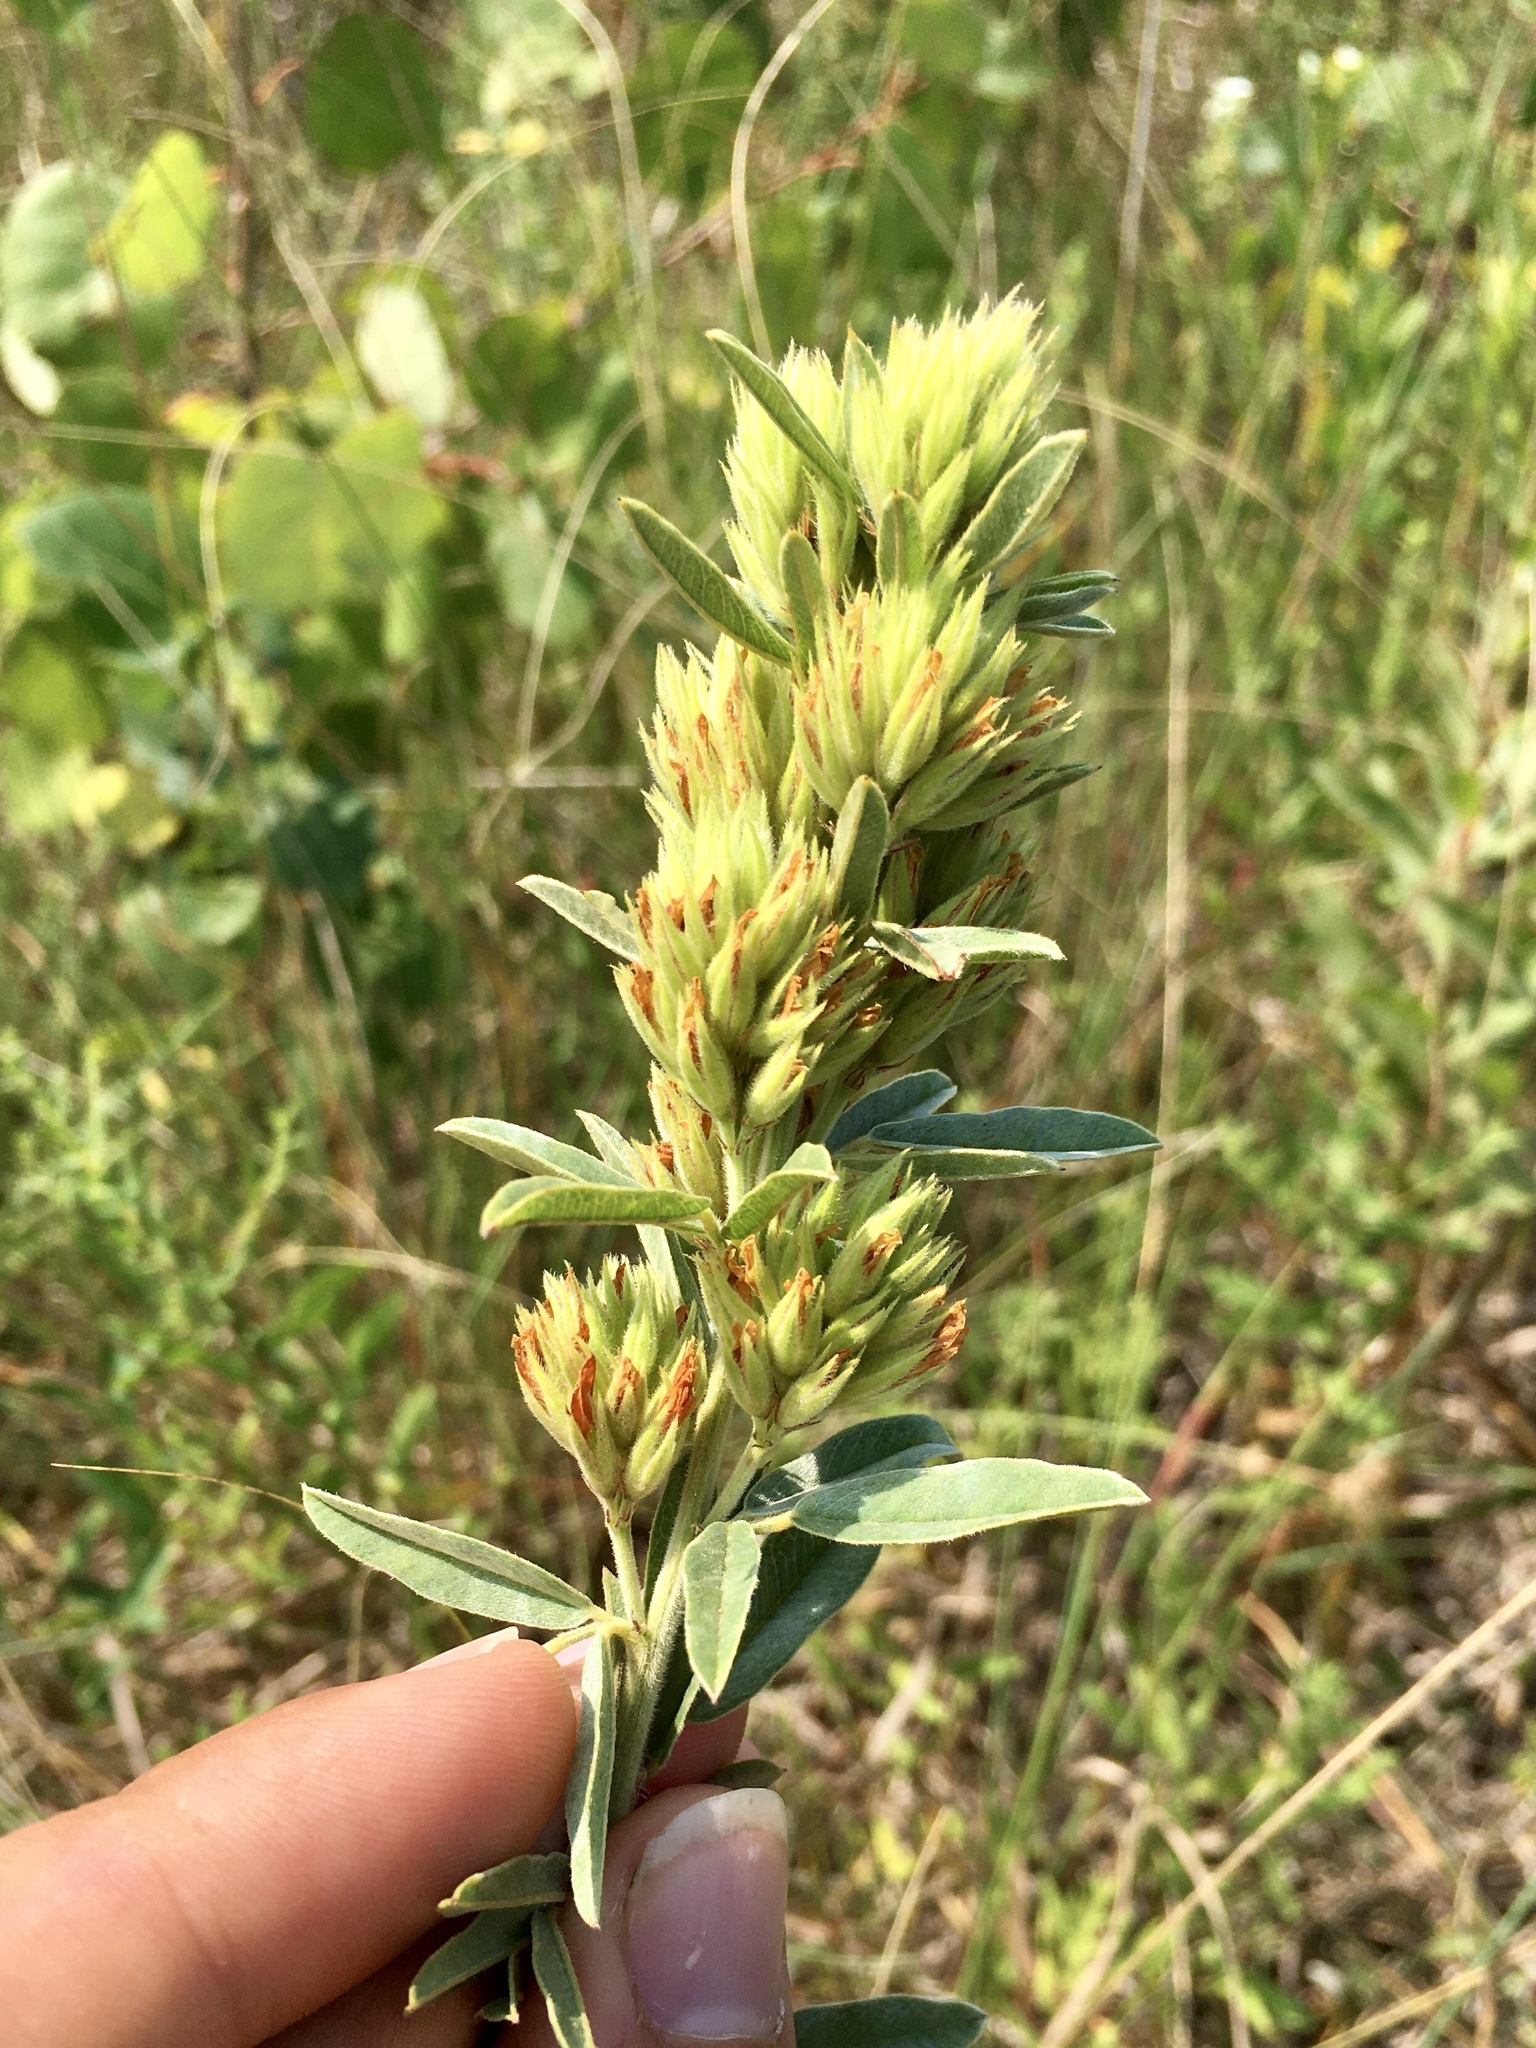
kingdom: Plantae
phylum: Tracheophyta
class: Magnoliopsida
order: Fabales
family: Fabaceae
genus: Lespedeza
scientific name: Lespedeza capitata
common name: Dusty clover
